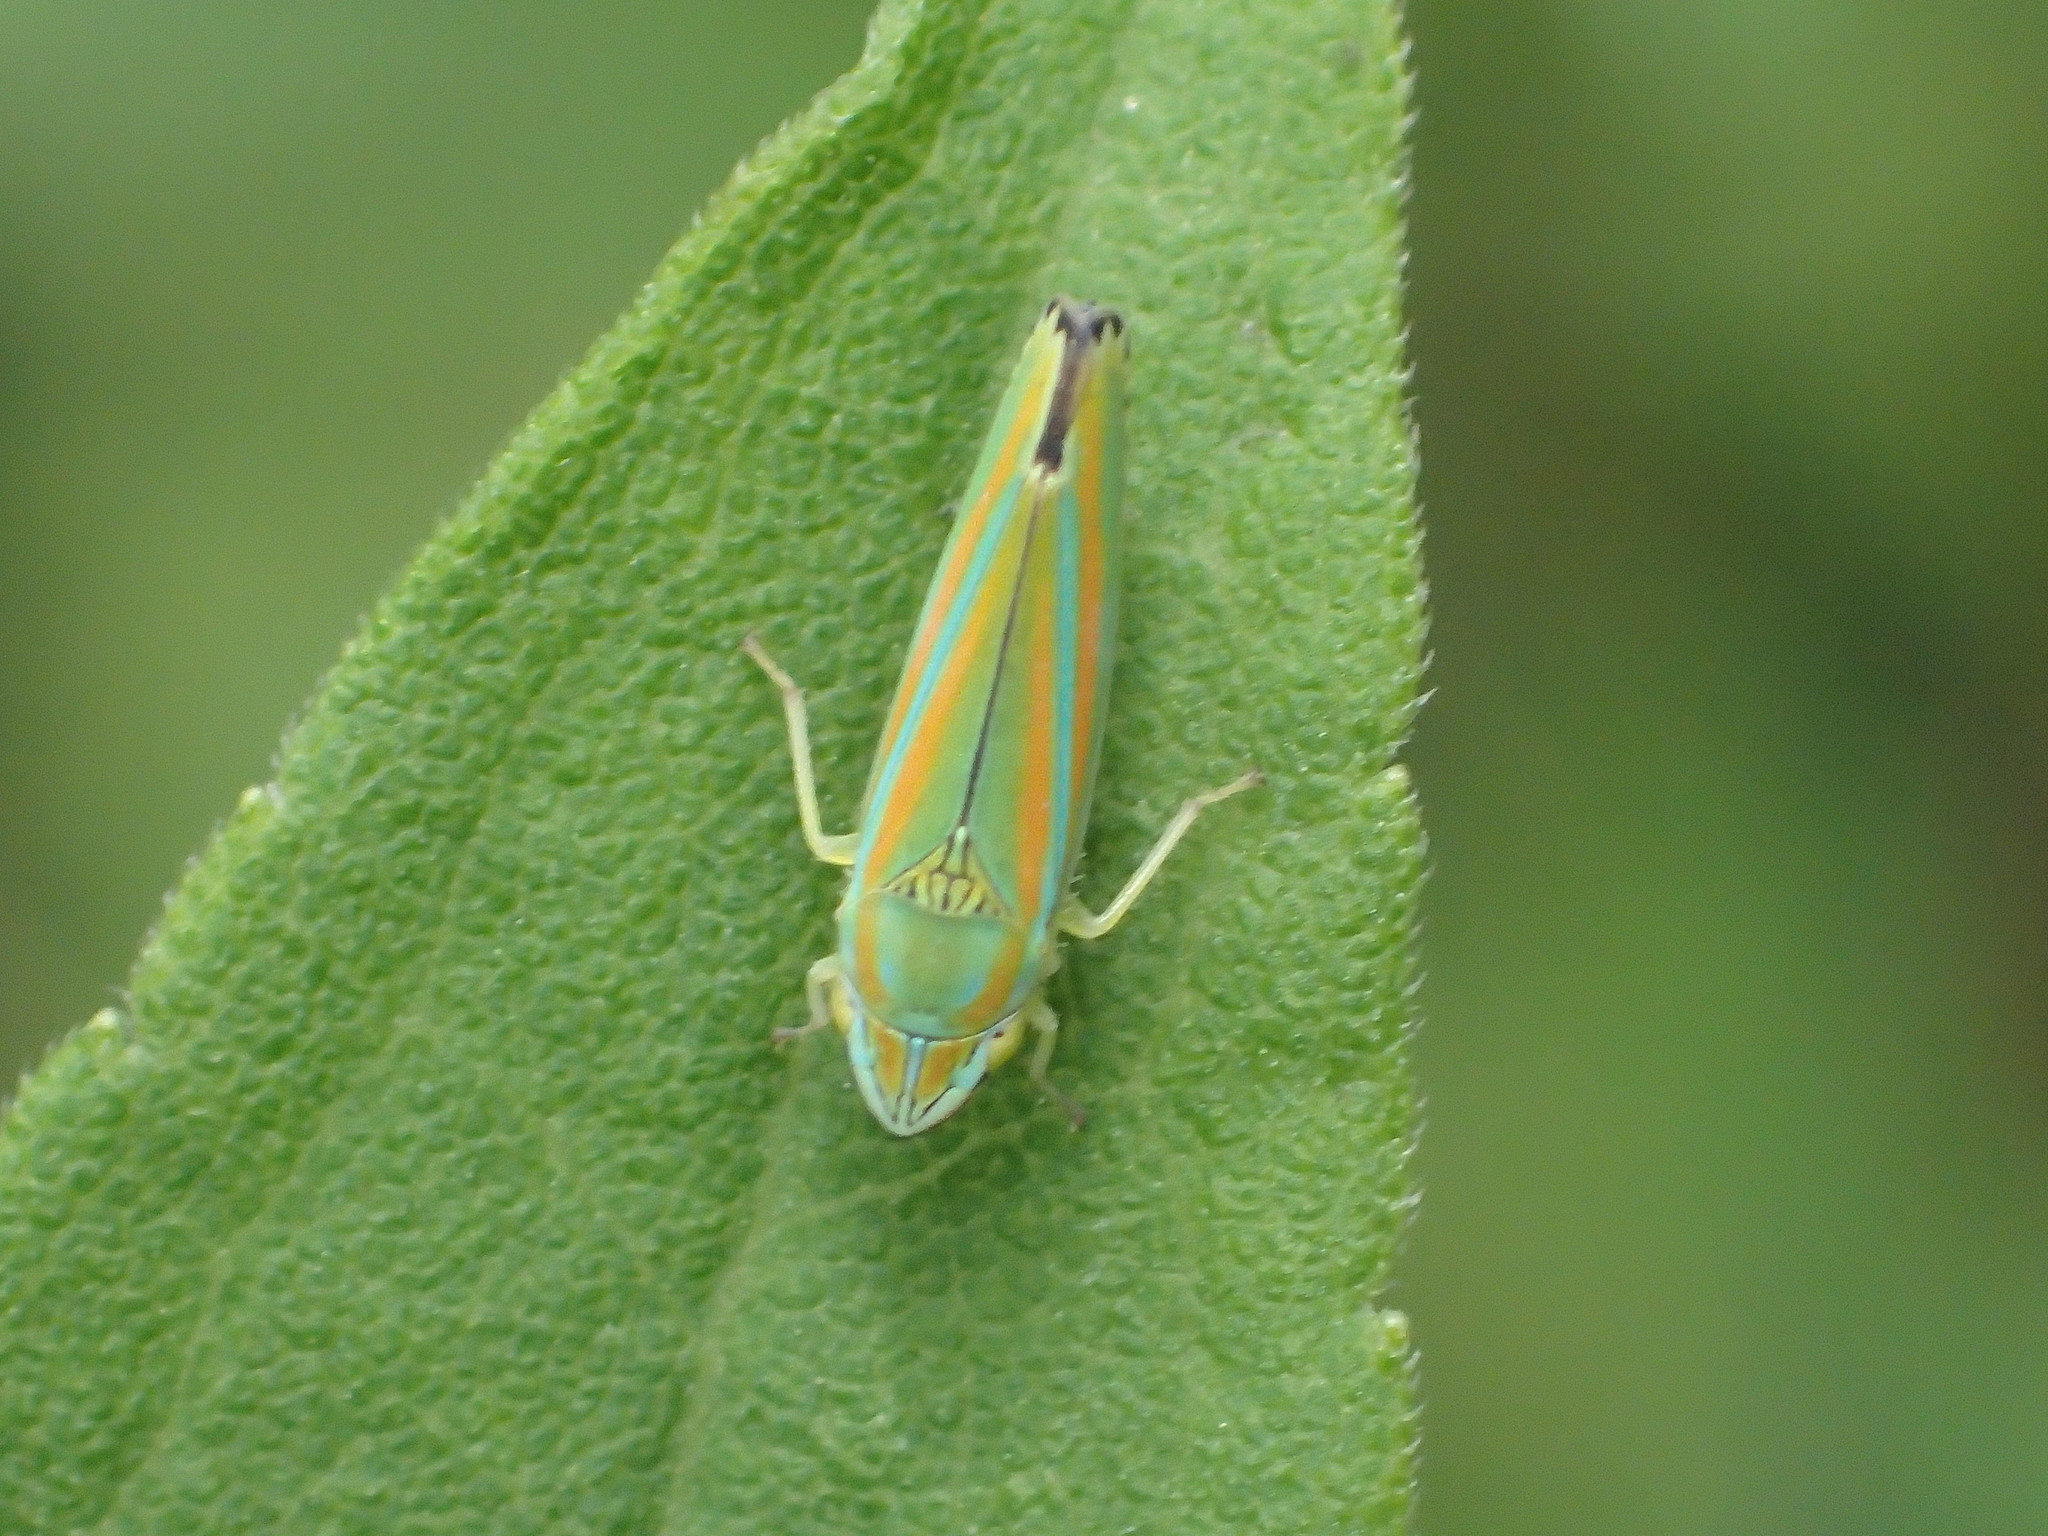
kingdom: Animalia
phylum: Arthropoda
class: Insecta
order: Hemiptera
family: Cicadellidae
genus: Graphocephala
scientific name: Graphocephala versuta
